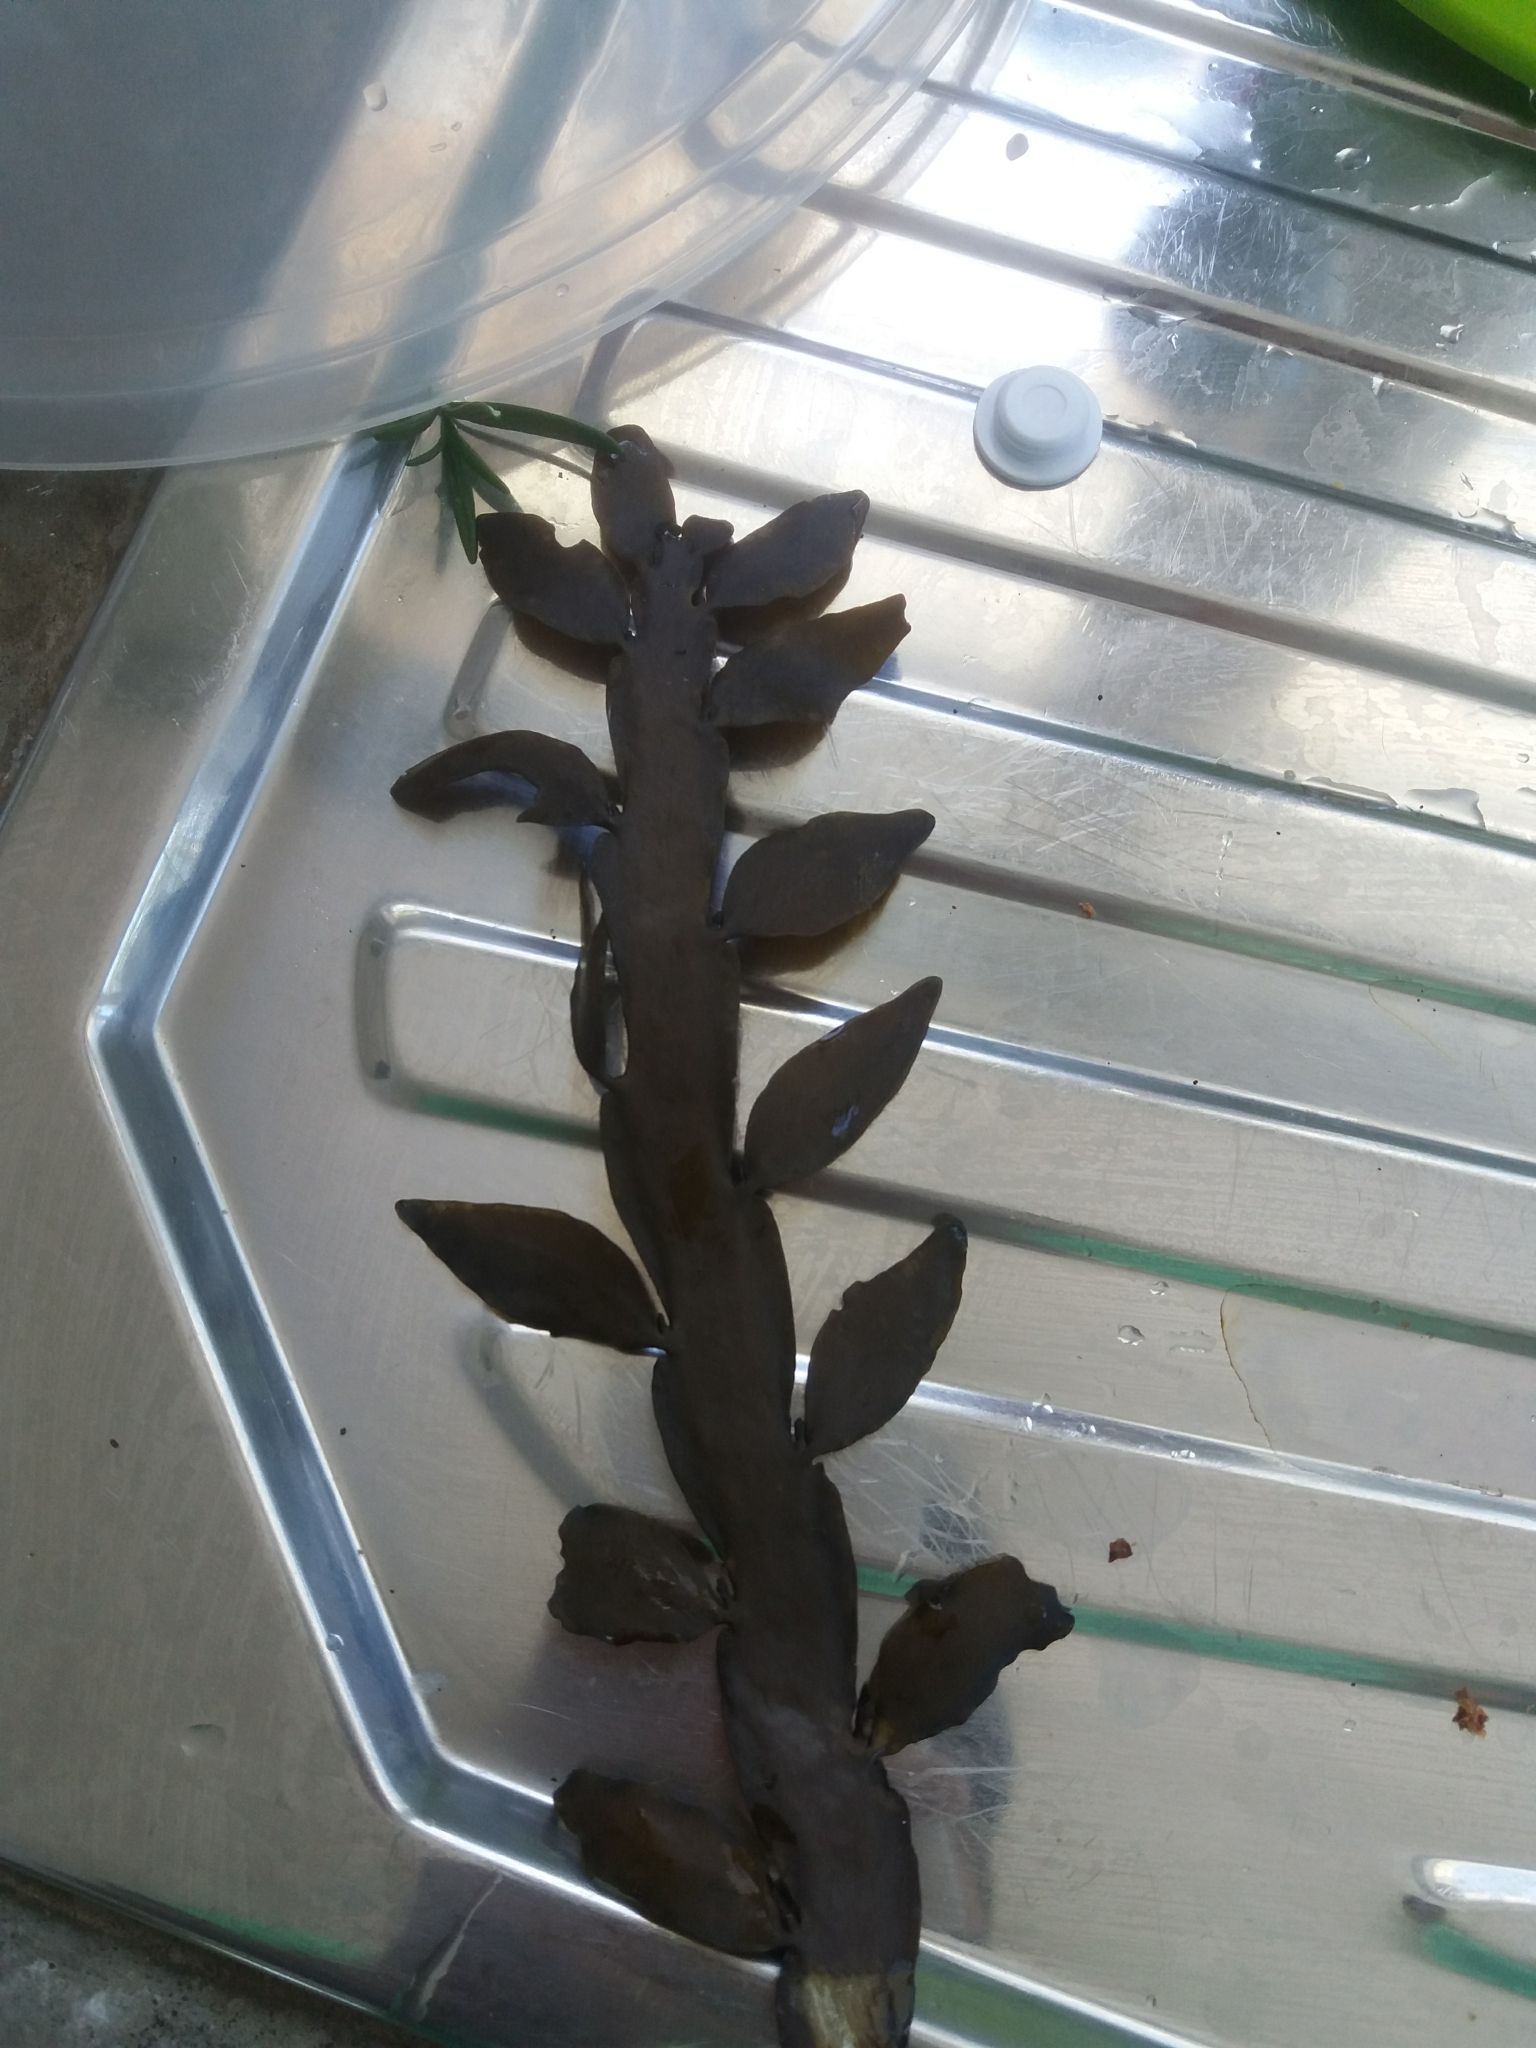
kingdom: Chromista
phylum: Ochrophyta
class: Phaeophyceae
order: Fucales
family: Sargassaceae
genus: Carpophyllum
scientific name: Carpophyllum maschalocarpum
